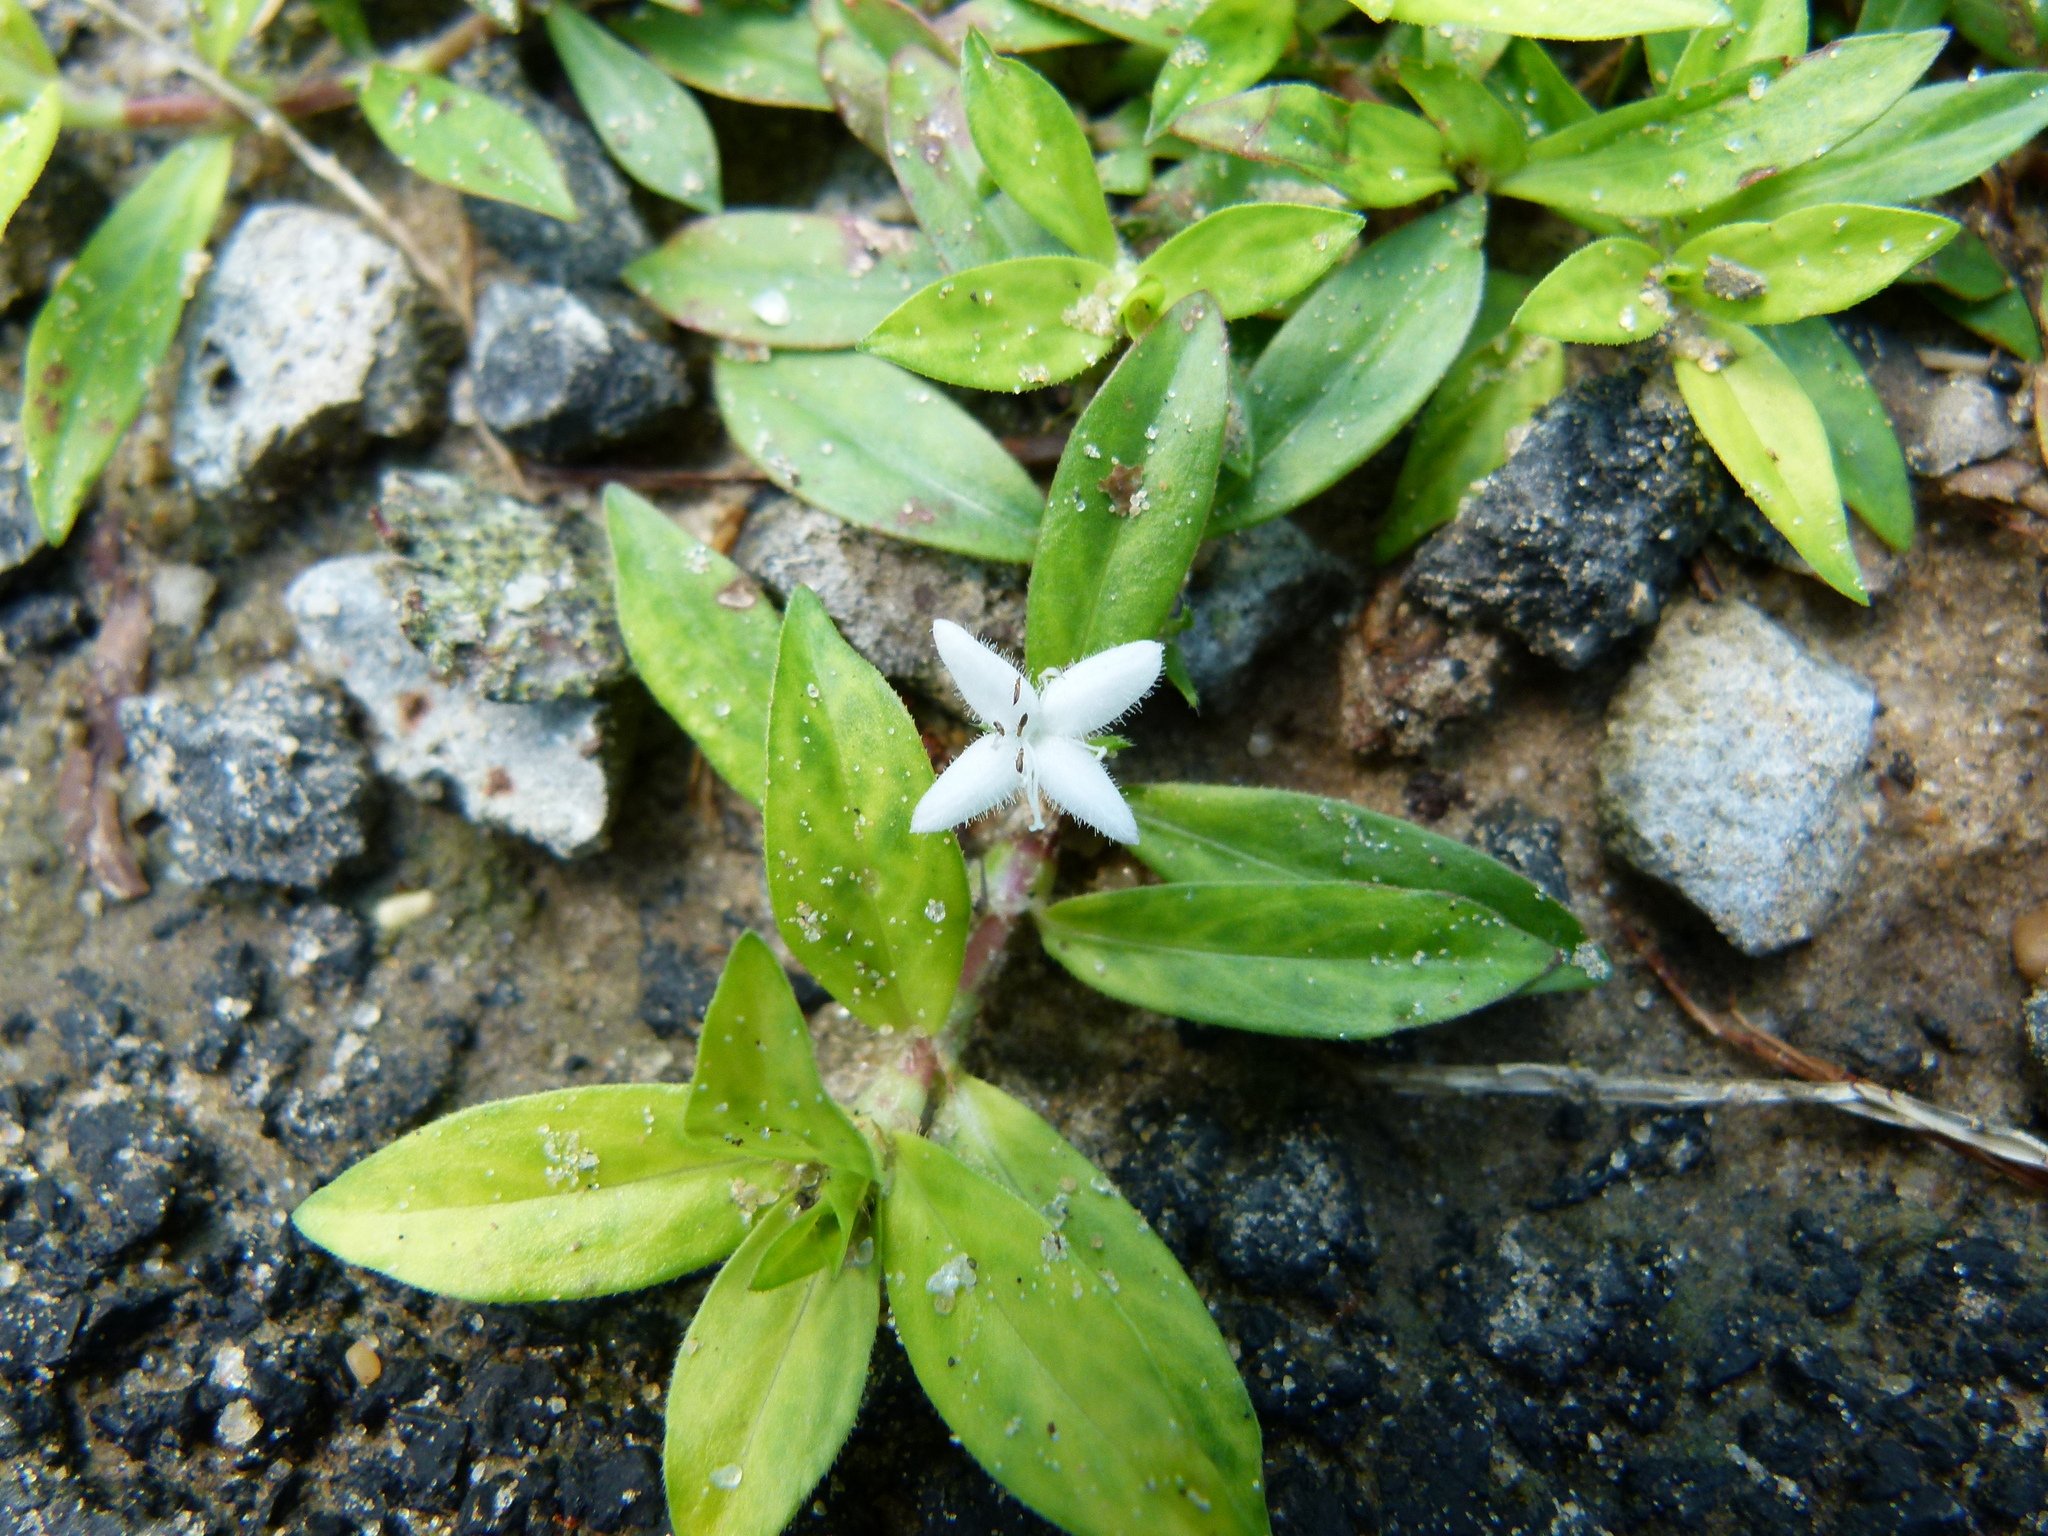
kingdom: Plantae
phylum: Tracheophyta
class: Magnoliopsida
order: Gentianales
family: Rubiaceae
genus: Diodia
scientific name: Diodia virginiana
